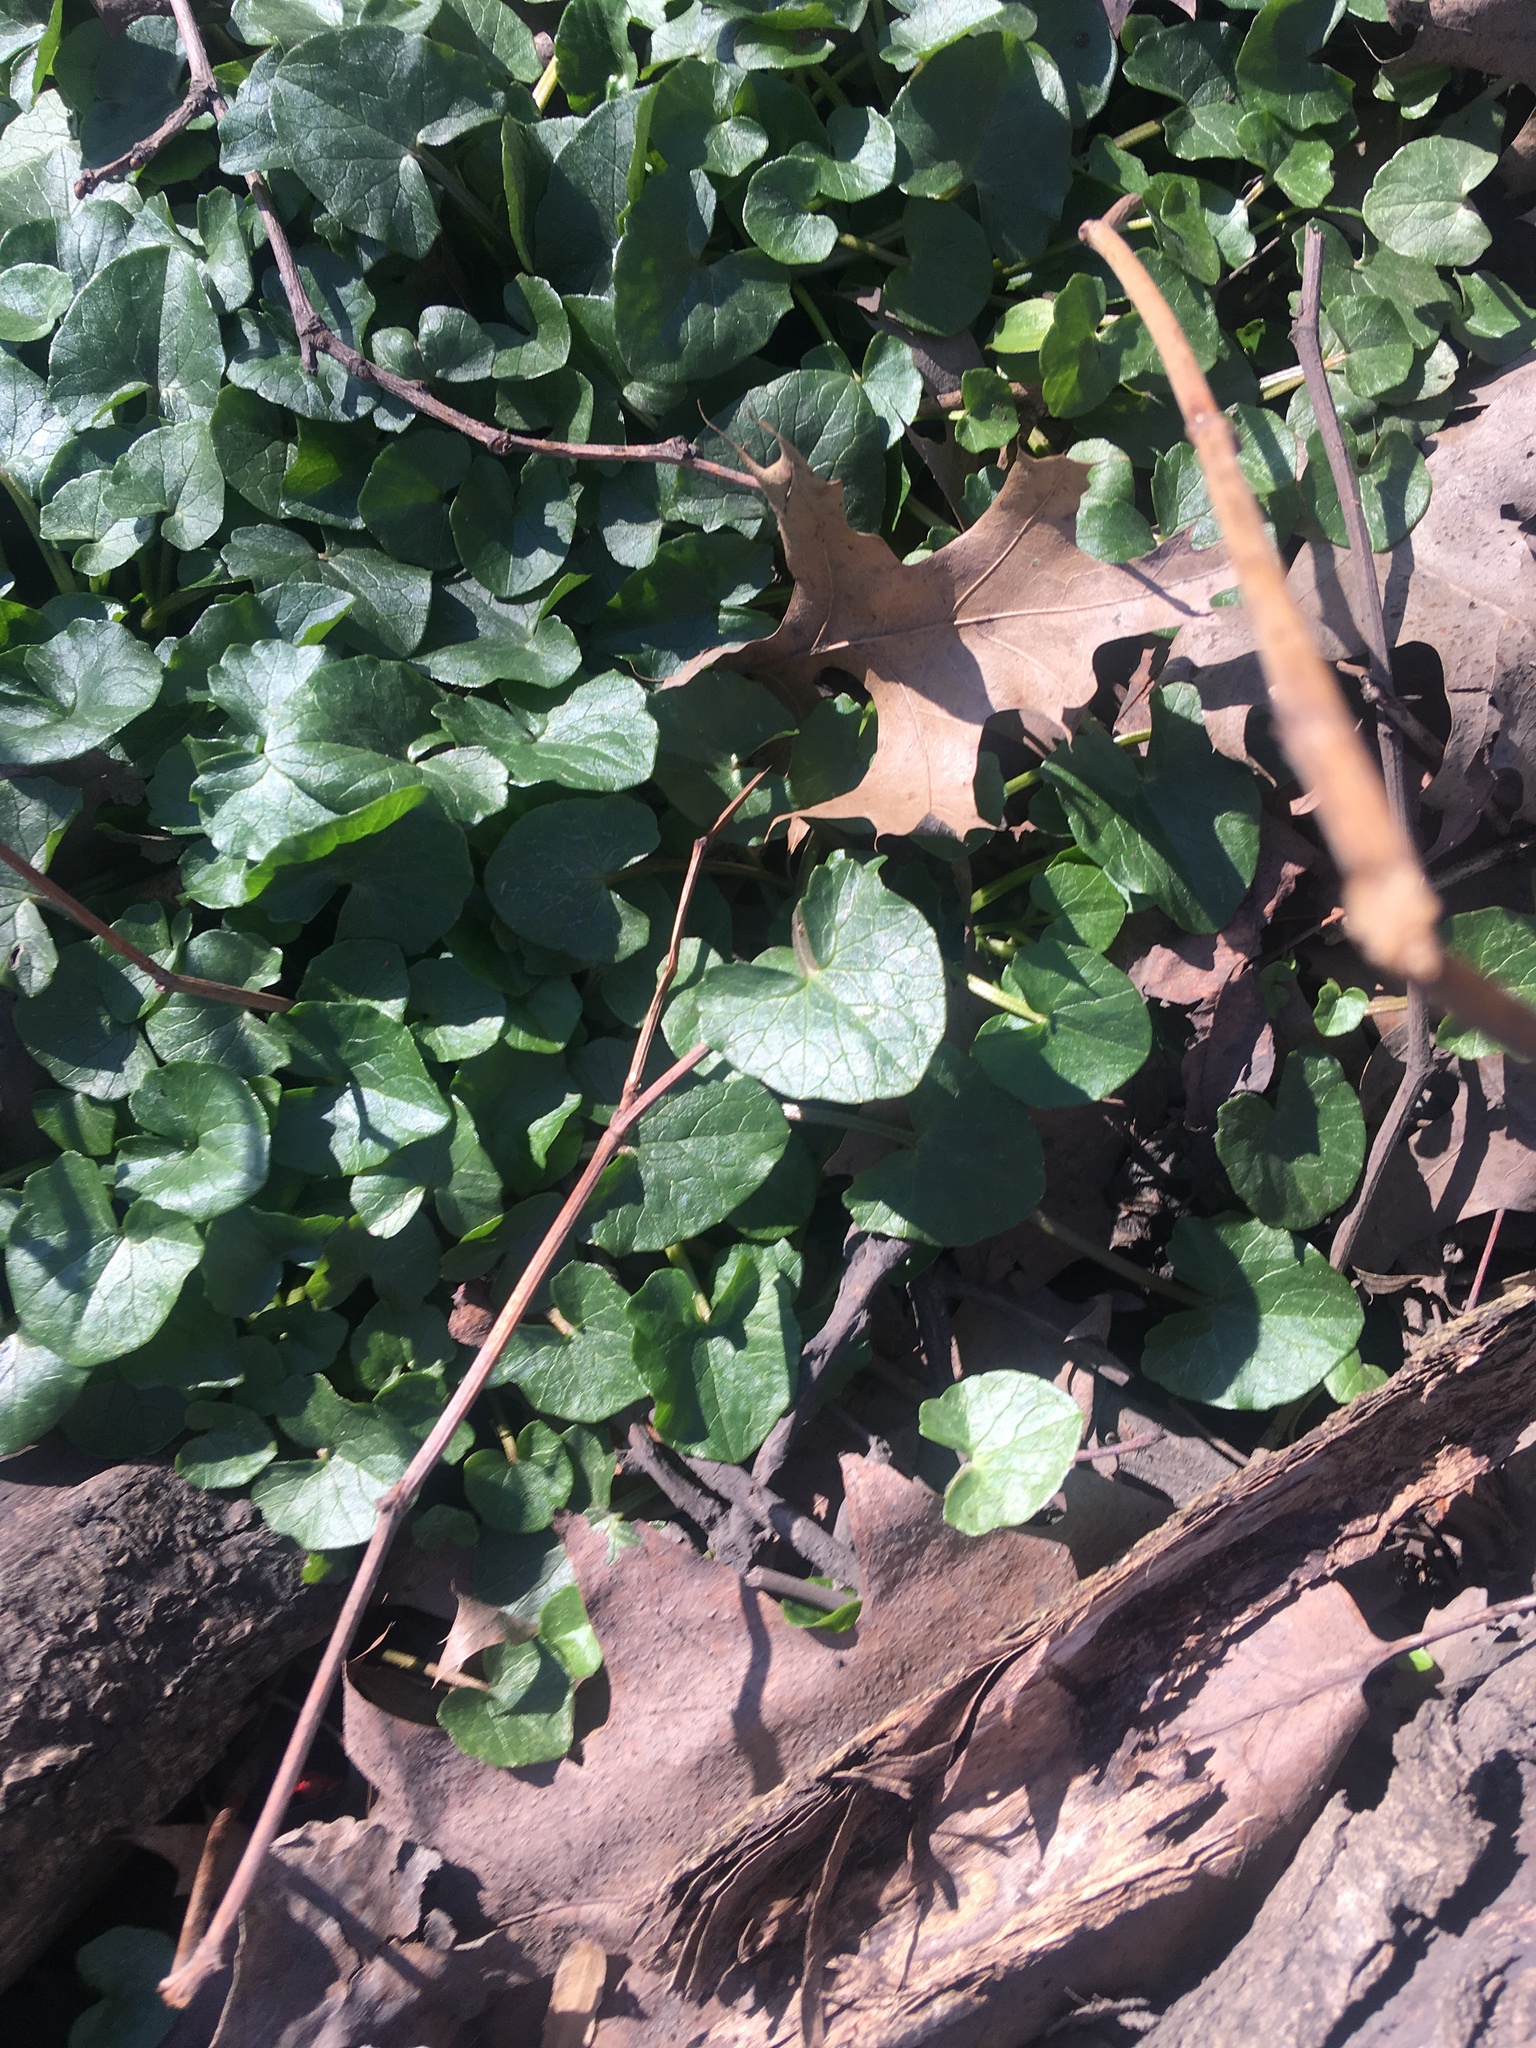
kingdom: Plantae
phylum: Tracheophyta
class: Magnoliopsida
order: Ranunculales
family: Ranunculaceae
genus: Ficaria
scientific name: Ficaria verna
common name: Lesser celandine
